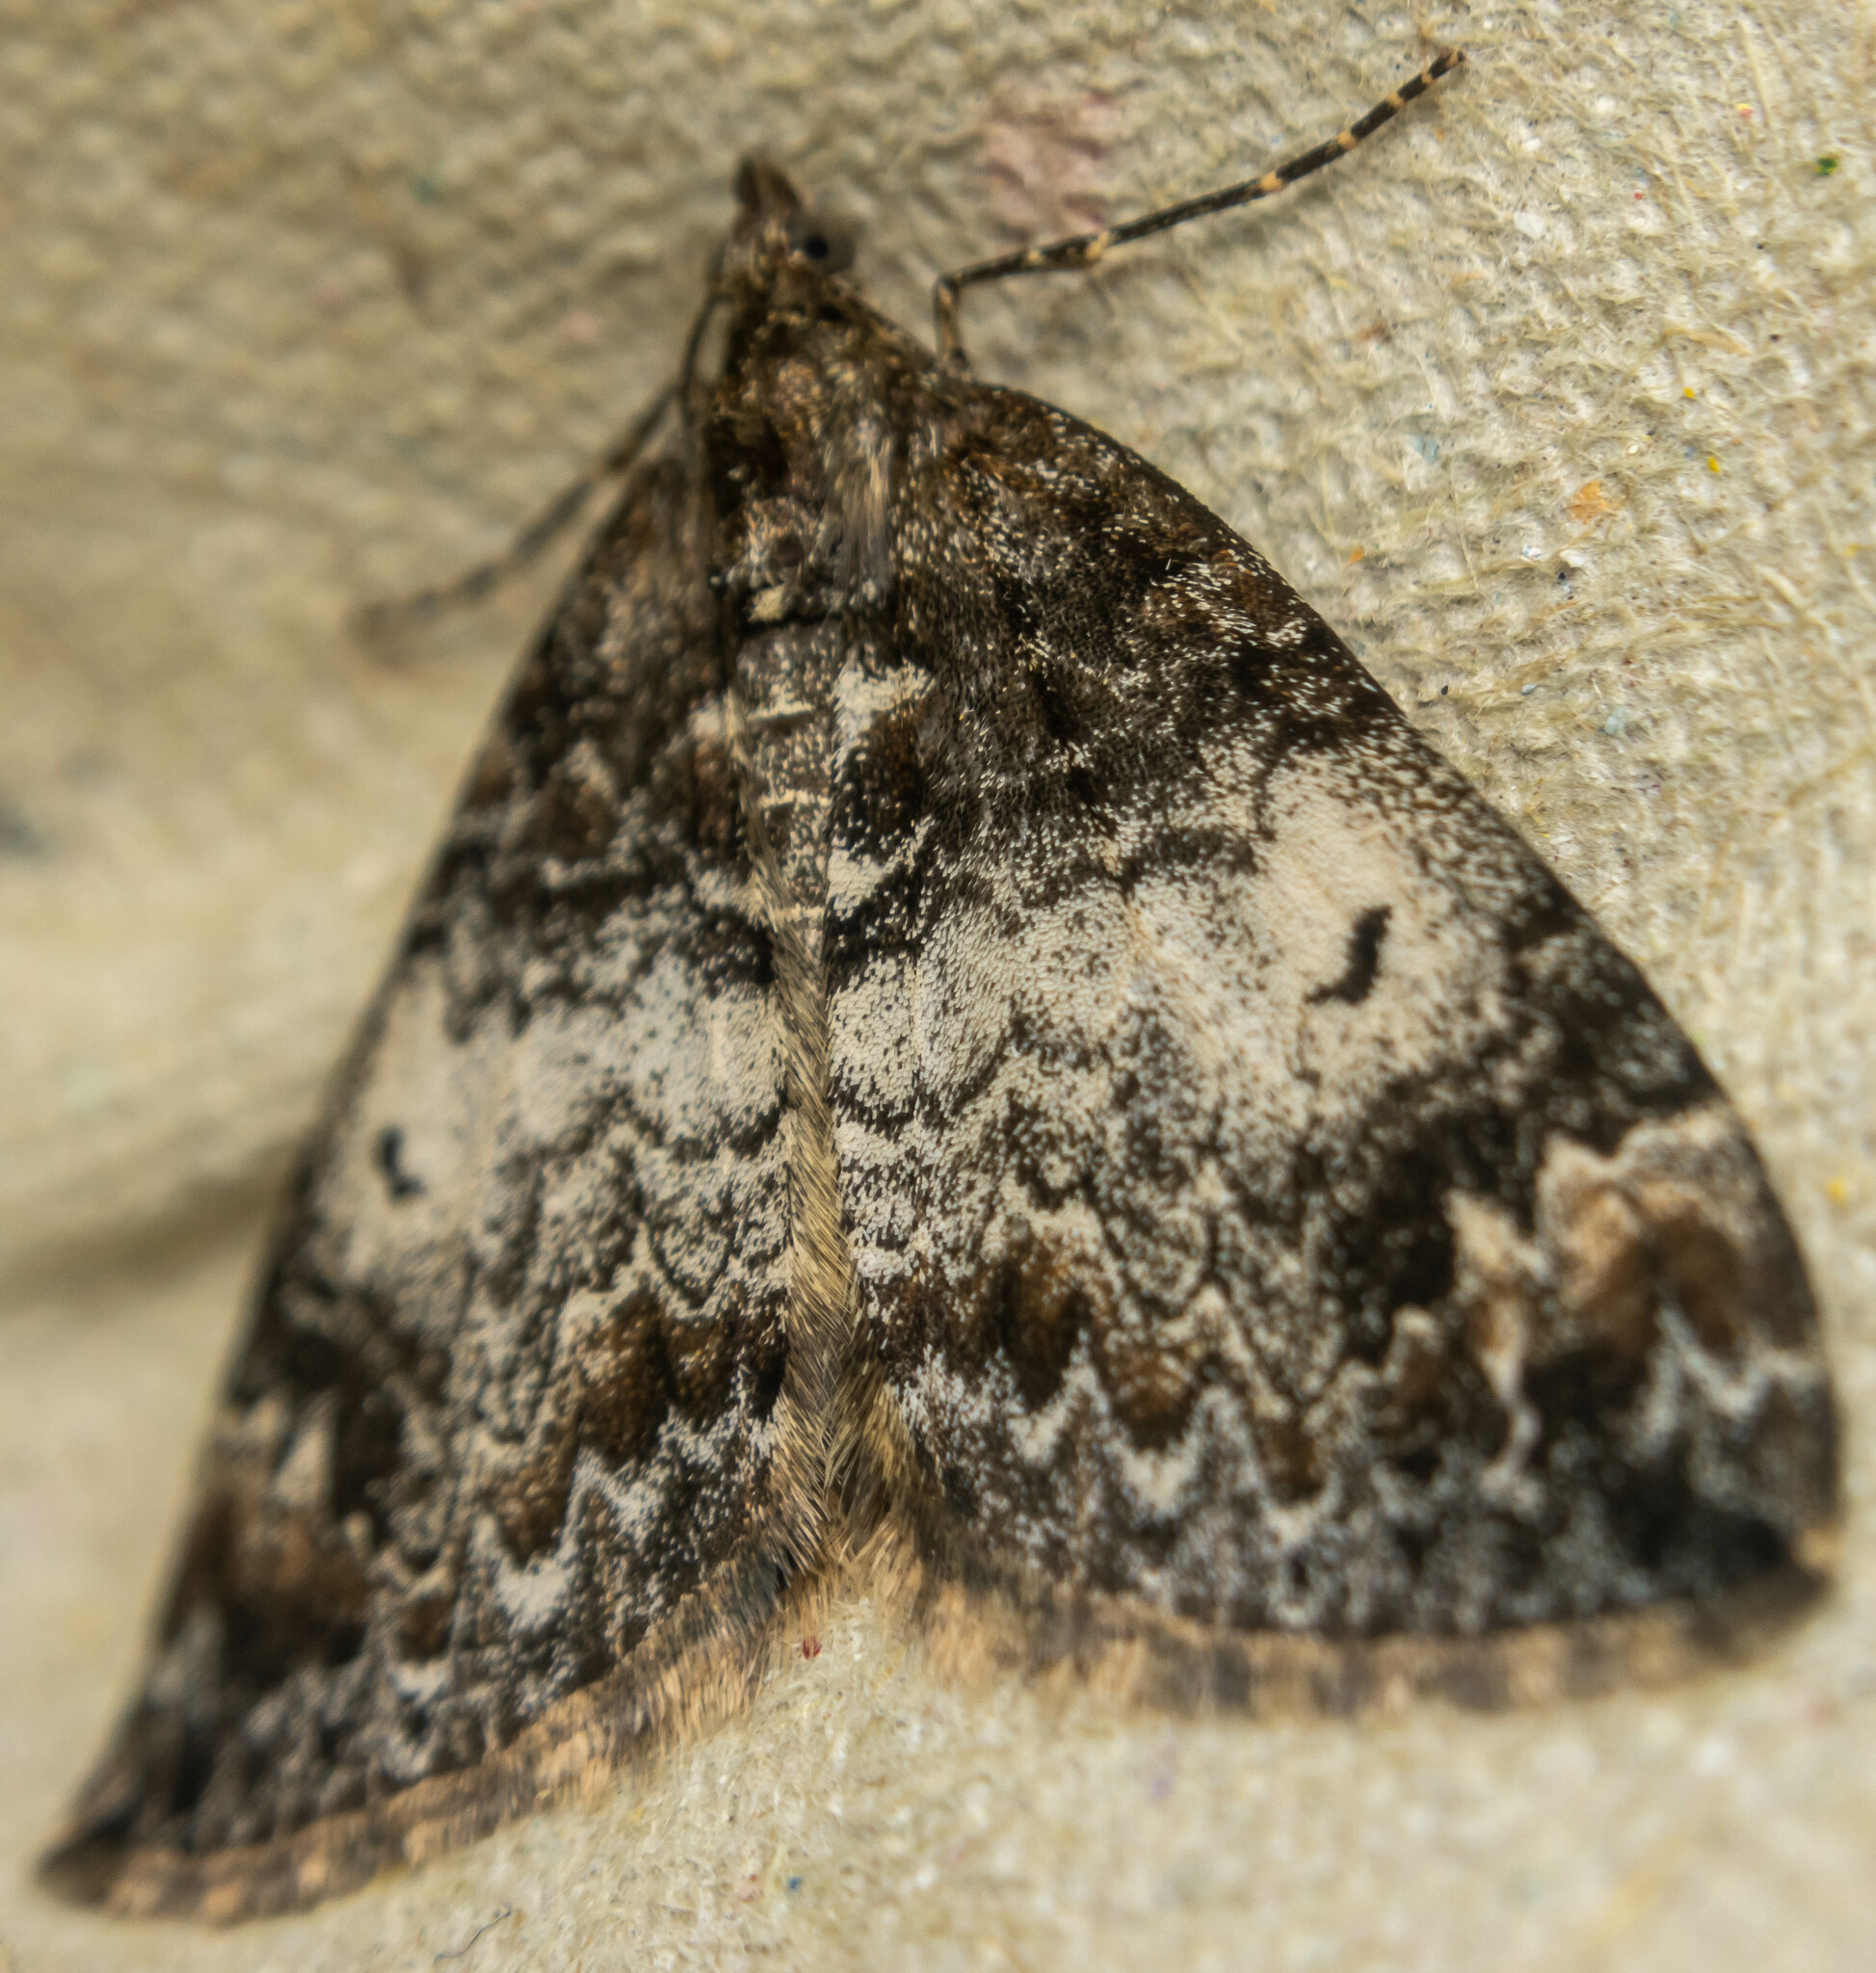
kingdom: Animalia
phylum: Arthropoda
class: Insecta
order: Lepidoptera
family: Geometridae
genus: Dysstroma
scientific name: Dysstroma truncata
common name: Common marbled carpet
